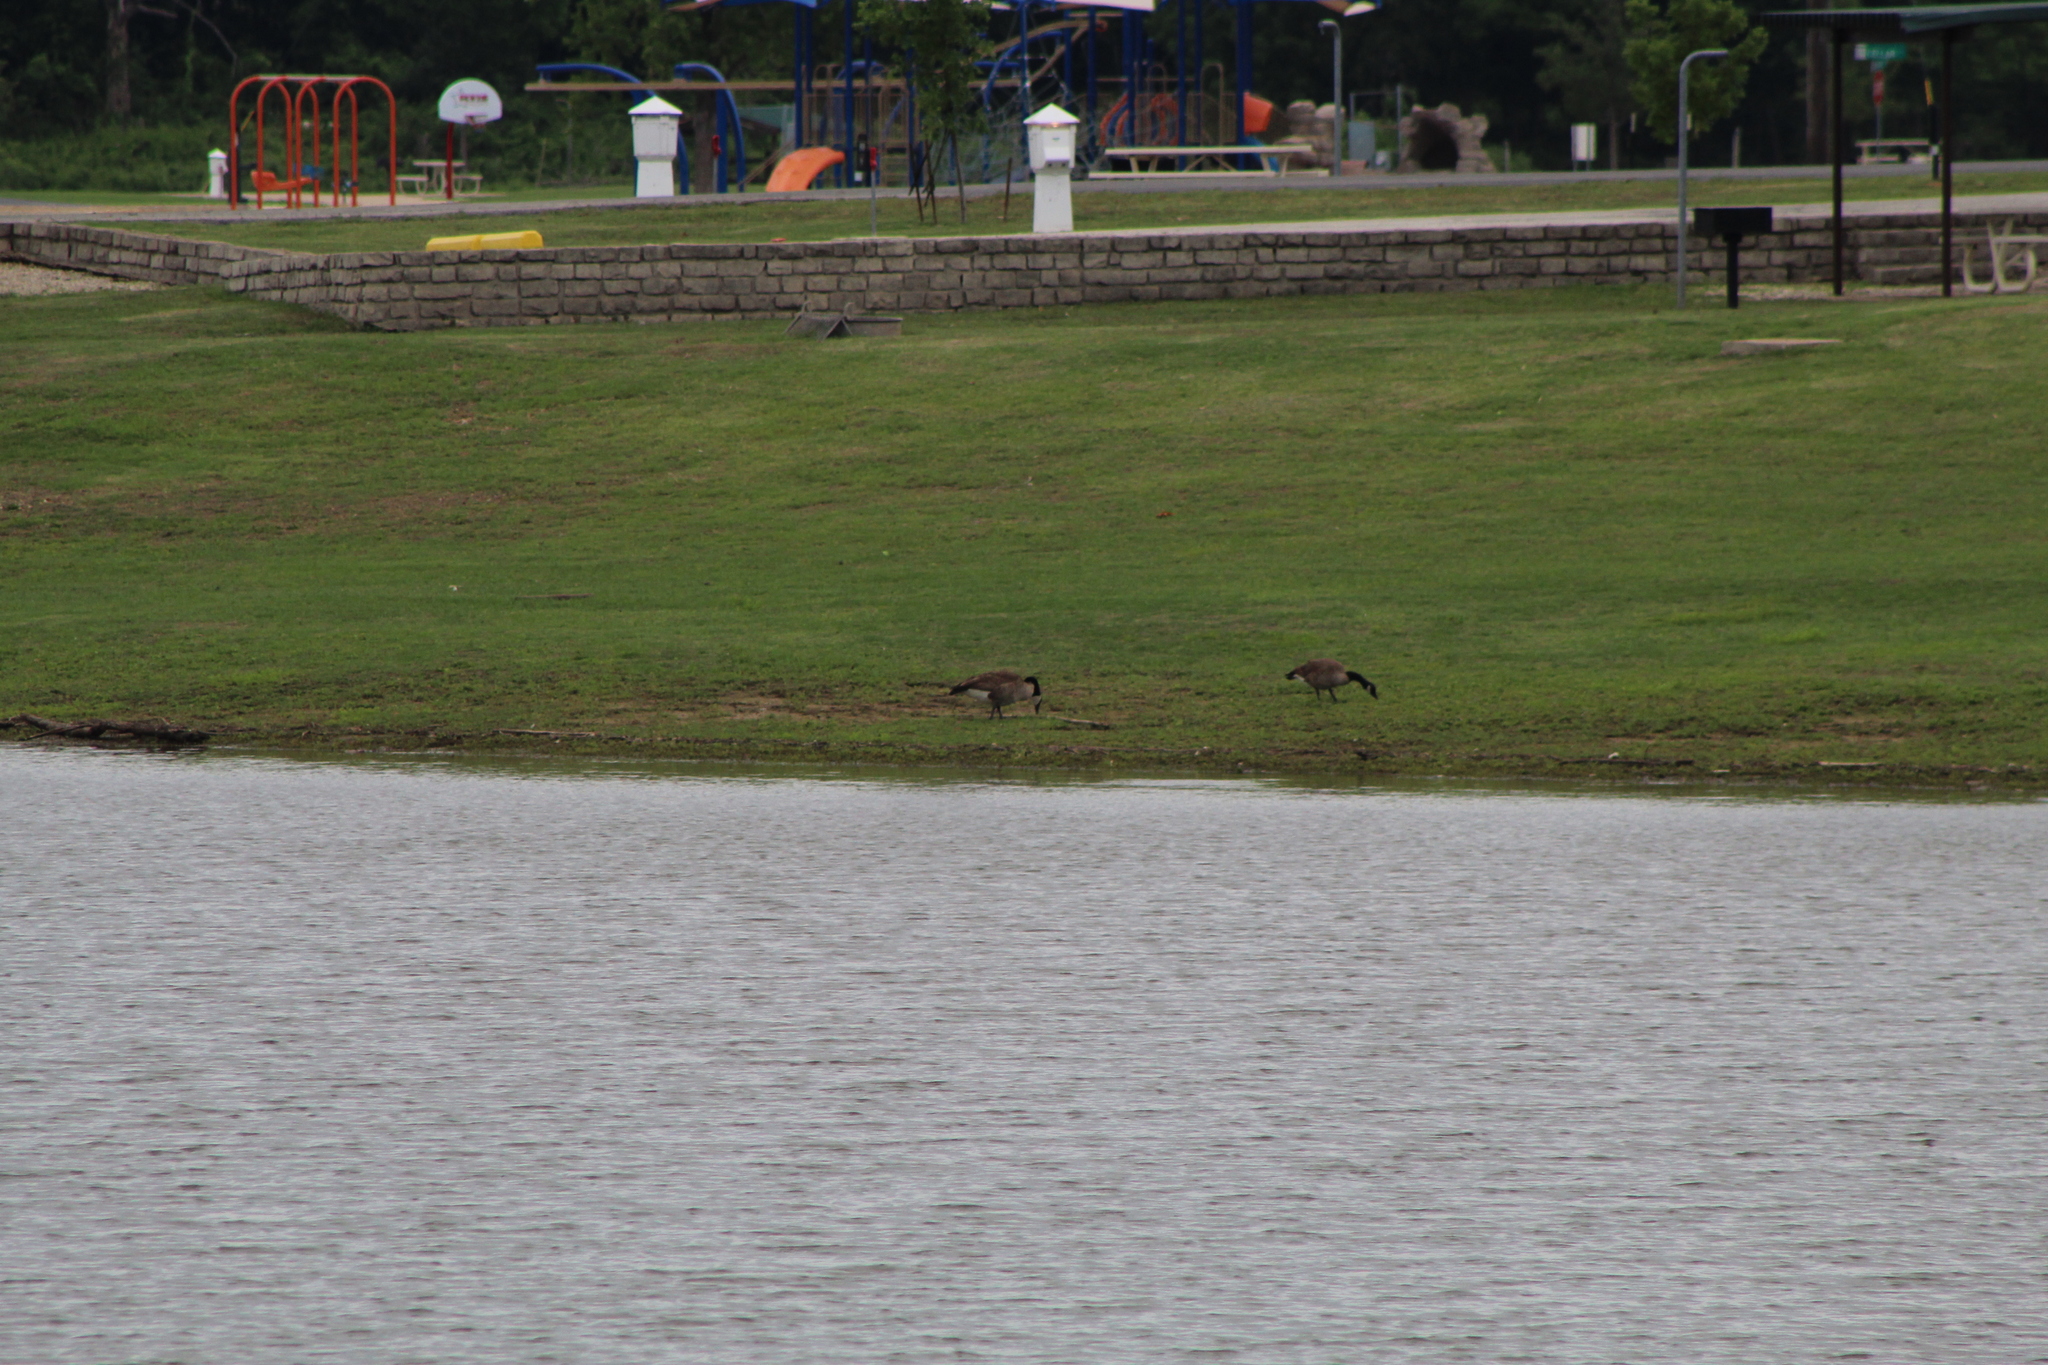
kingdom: Animalia
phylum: Chordata
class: Aves
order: Anseriformes
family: Anatidae
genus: Branta
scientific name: Branta canadensis
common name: Canada goose
